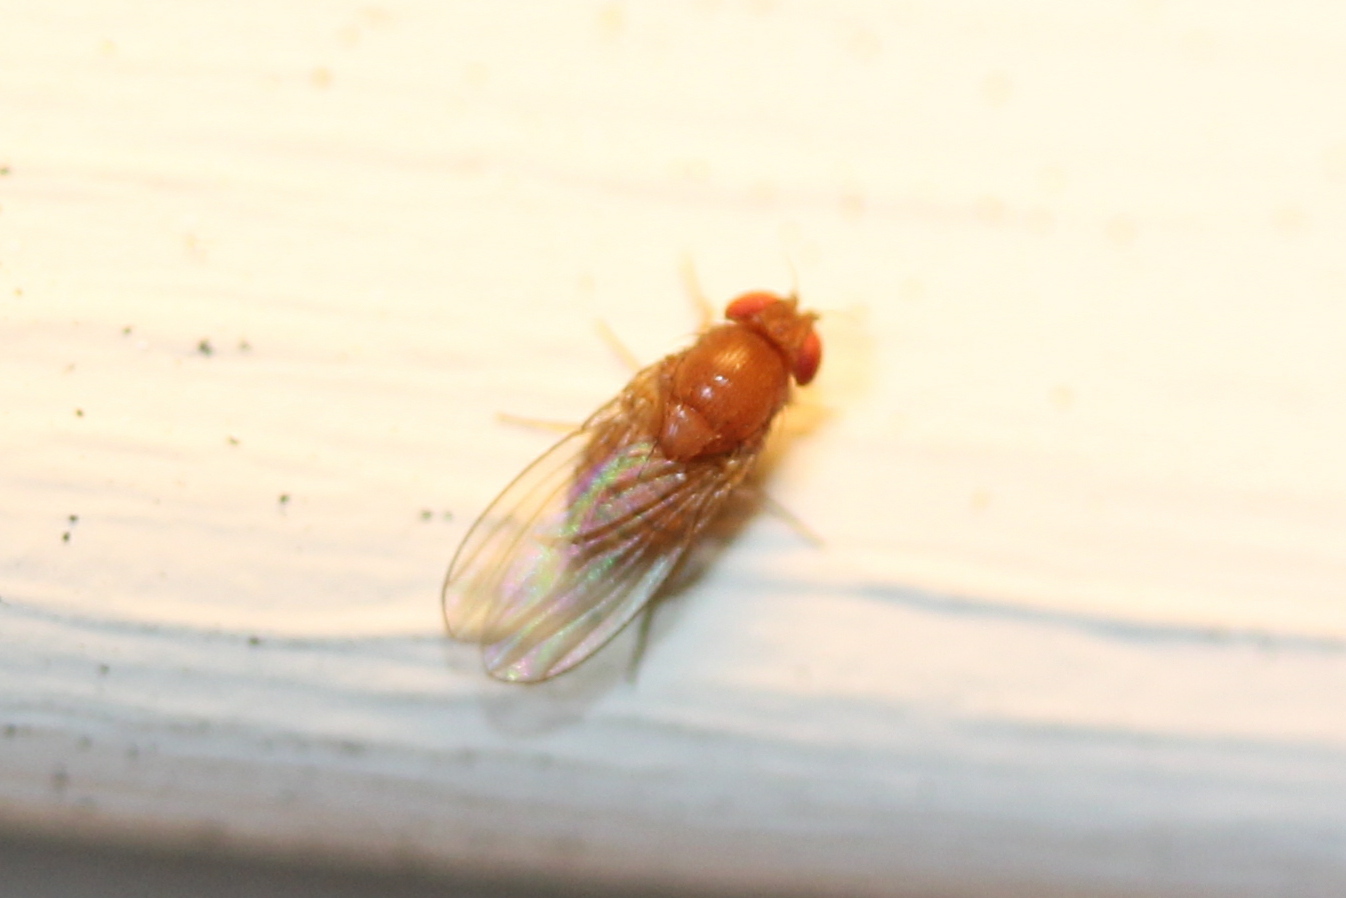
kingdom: Animalia
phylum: Arthropoda
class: Insecta
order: Diptera
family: Drosophilidae
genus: Drosophila
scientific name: Drosophila
